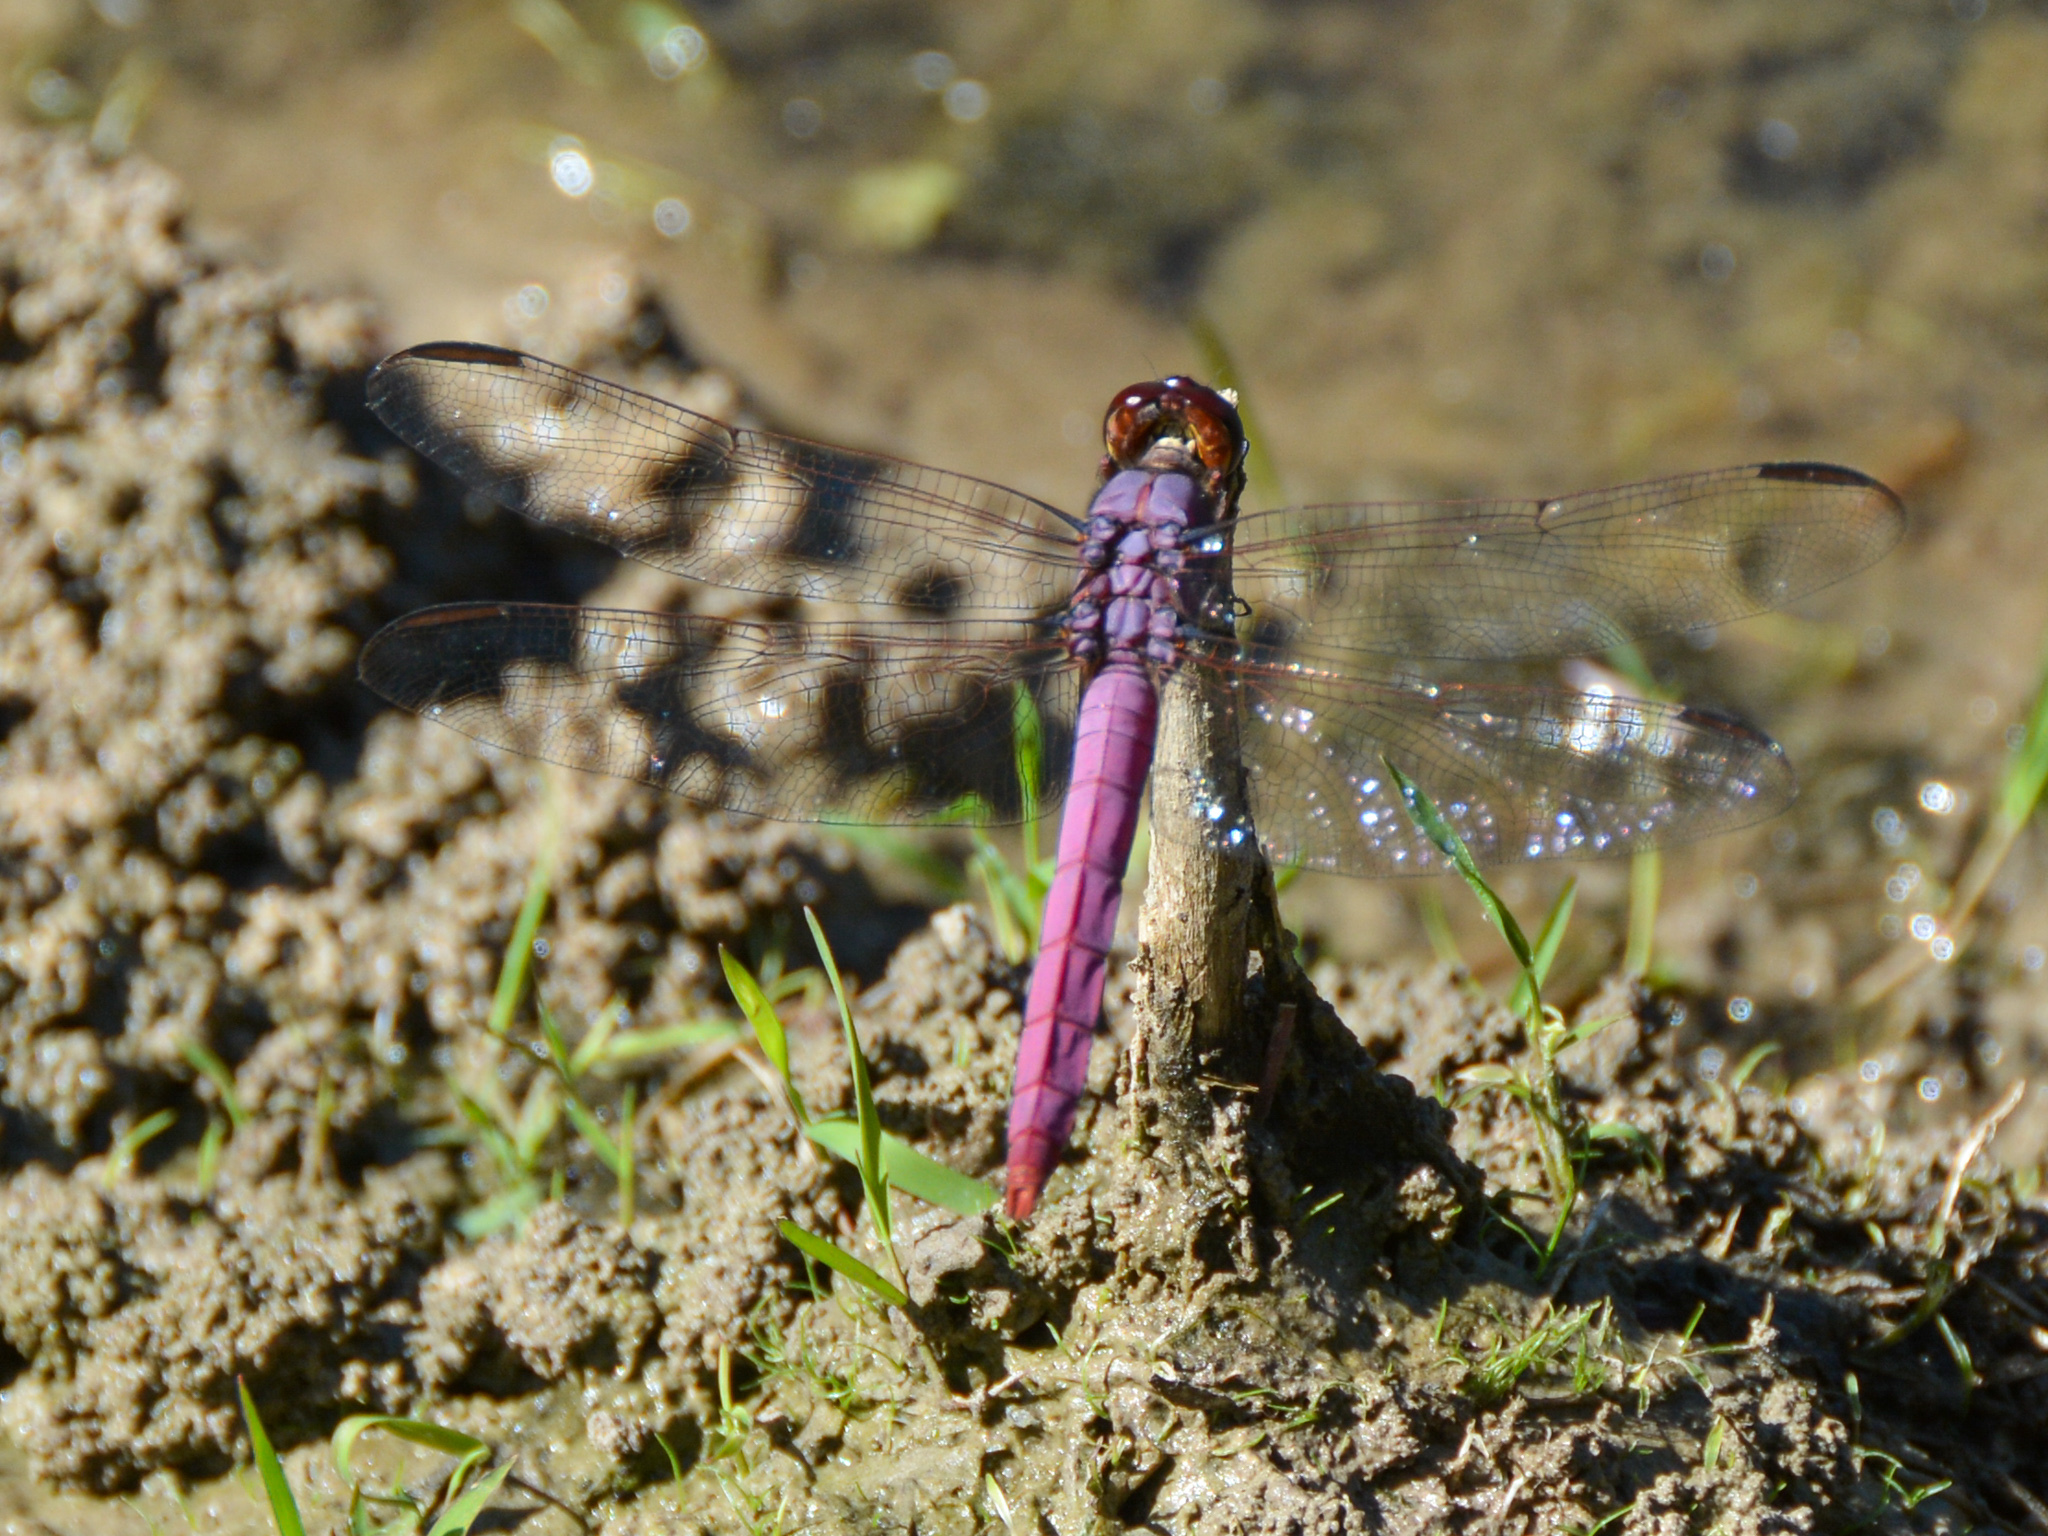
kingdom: Animalia
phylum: Arthropoda
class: Insecta
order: Odonata
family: Libellulidae
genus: Orthemis
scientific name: Orthemis ferruginea
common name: Roseate skimmer
